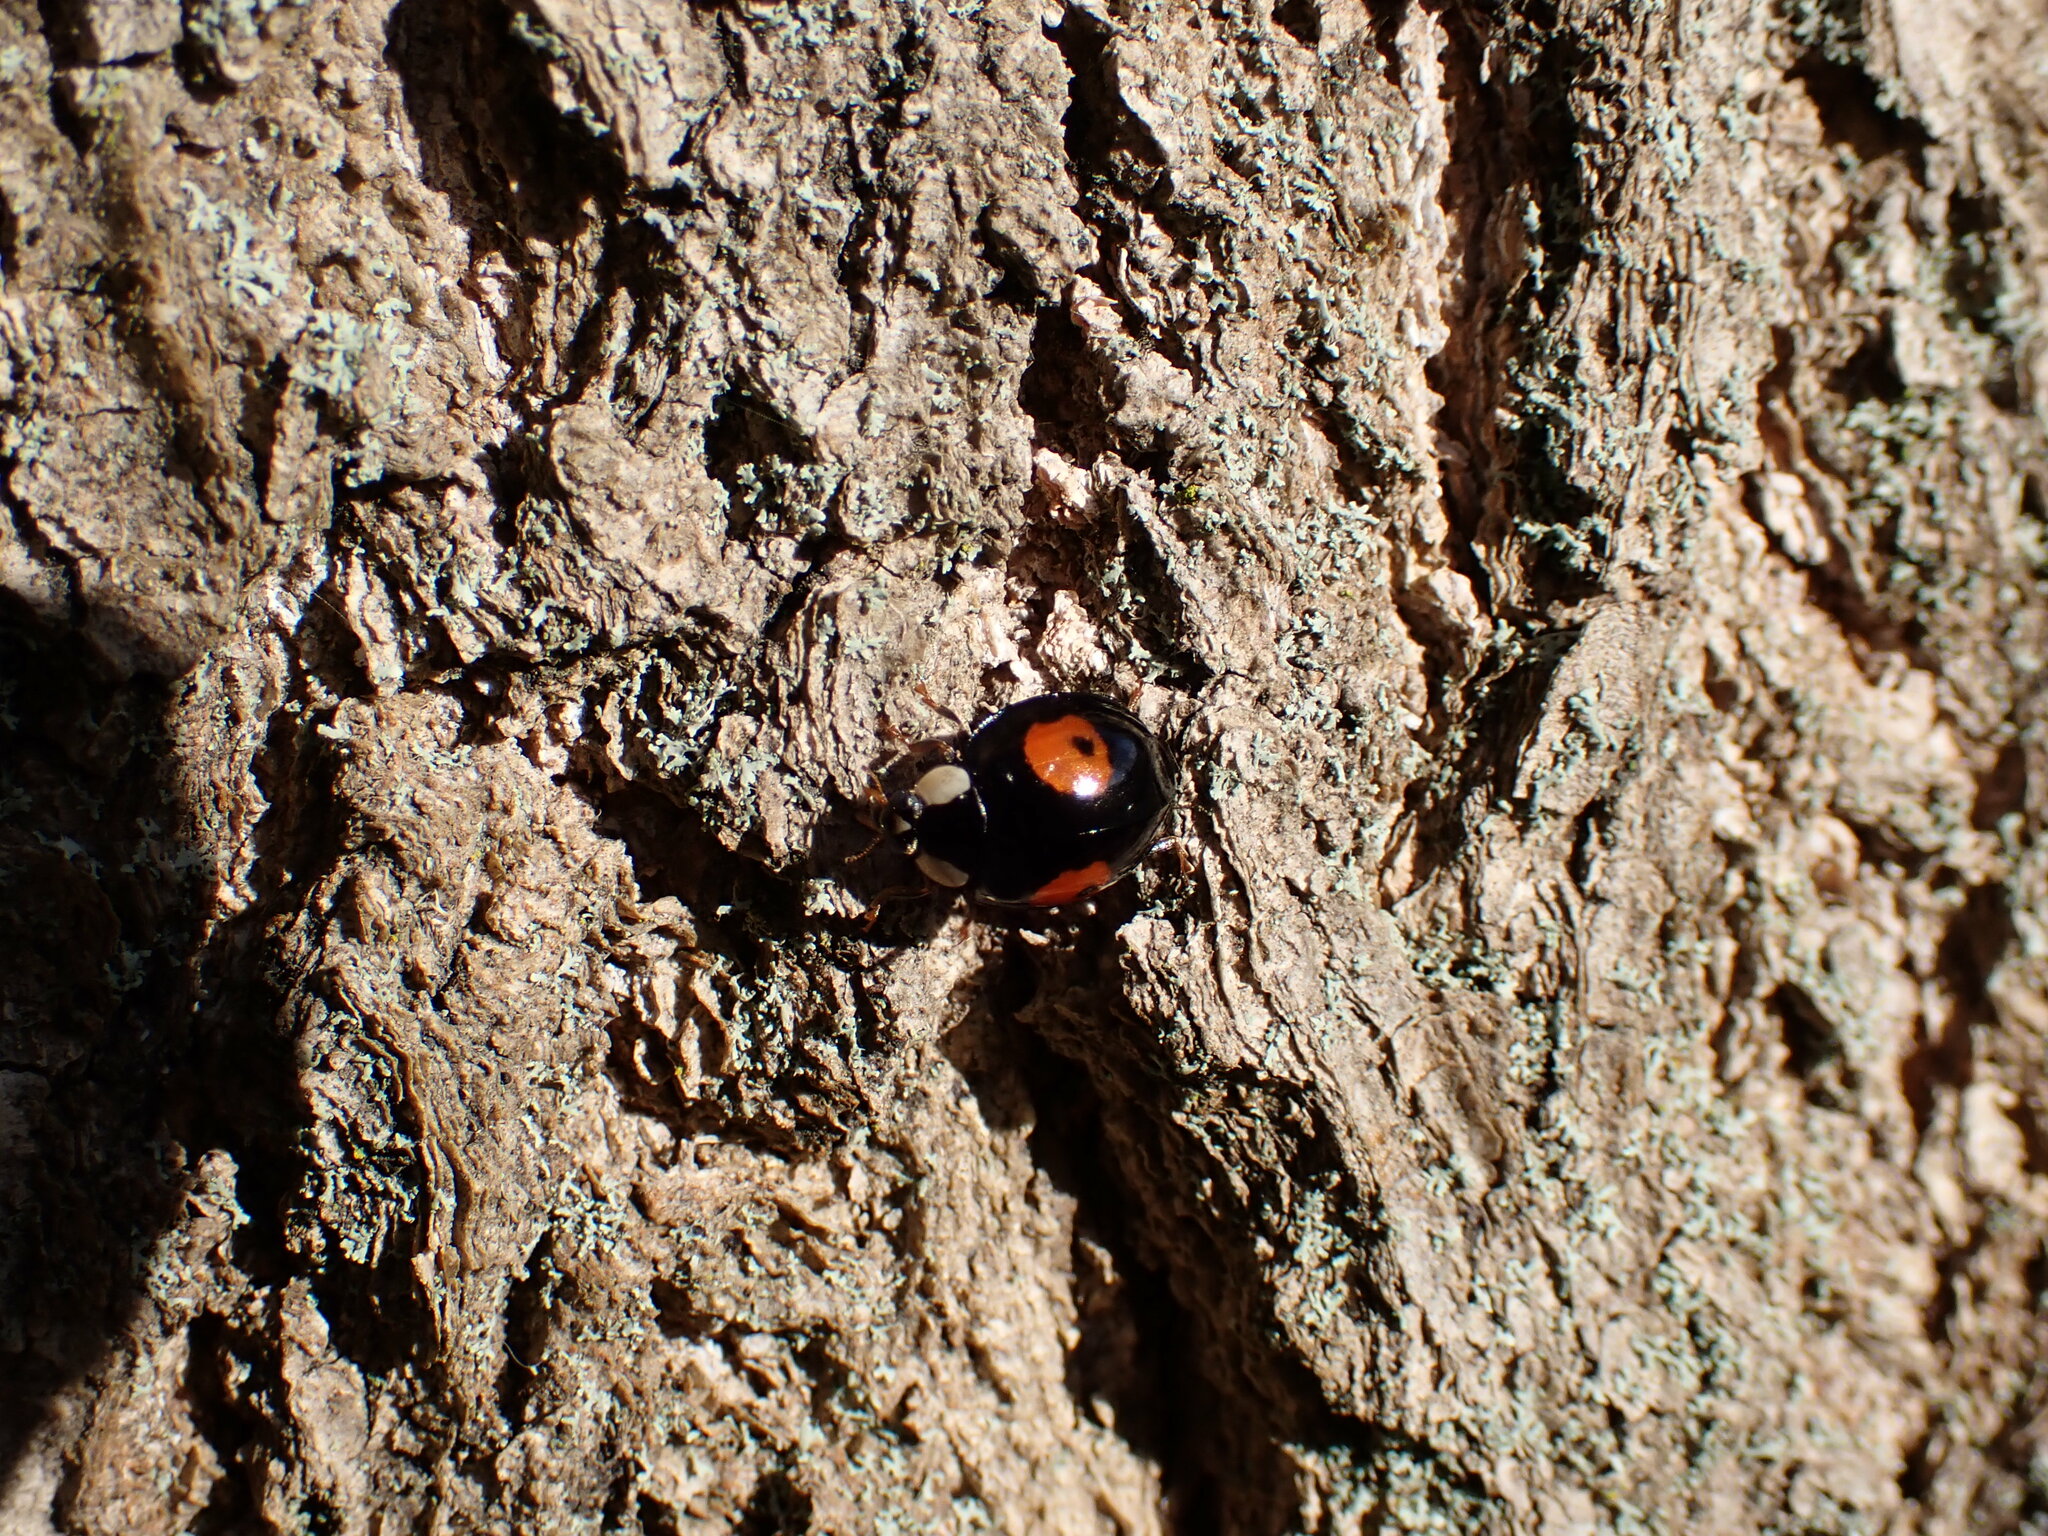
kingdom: Animalia
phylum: Arthropoda
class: Insecta
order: Coleoptera
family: Coccinellidae
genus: Harmonia
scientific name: Harmonia axyridis
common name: Harlequin ladybird
